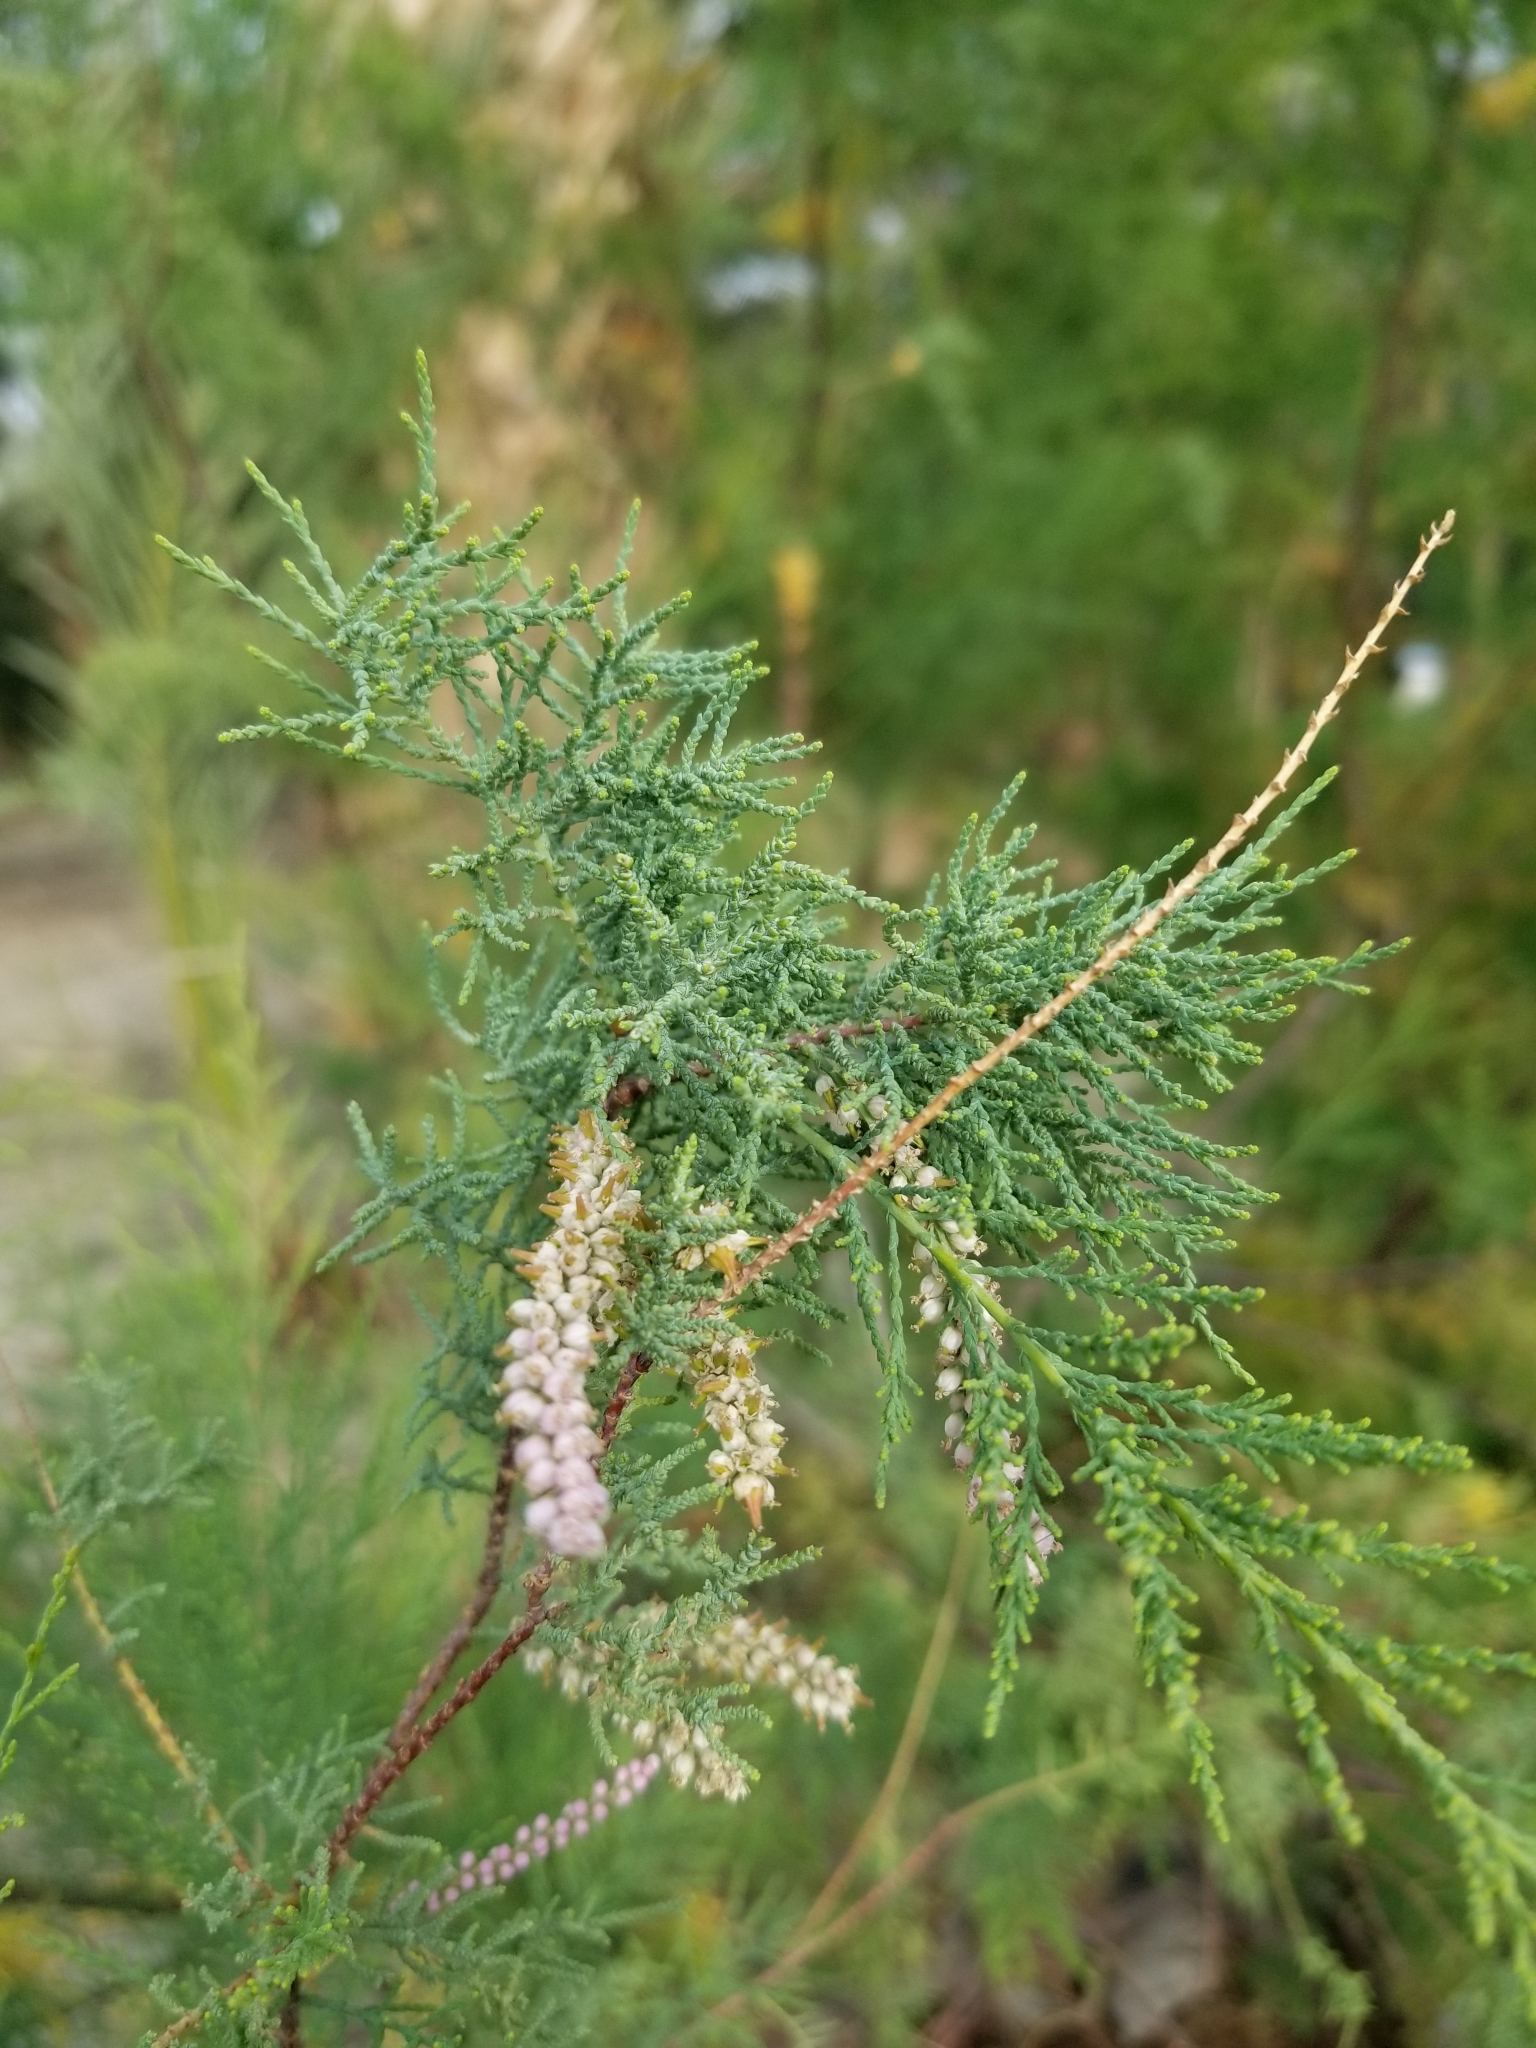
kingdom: Plantae
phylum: Tracheophyta
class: Magnoliopsida
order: Caryophyllales
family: Tamaricaceae
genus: Tamarix
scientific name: Tamarix ramosissima
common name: Pink tamarisk
